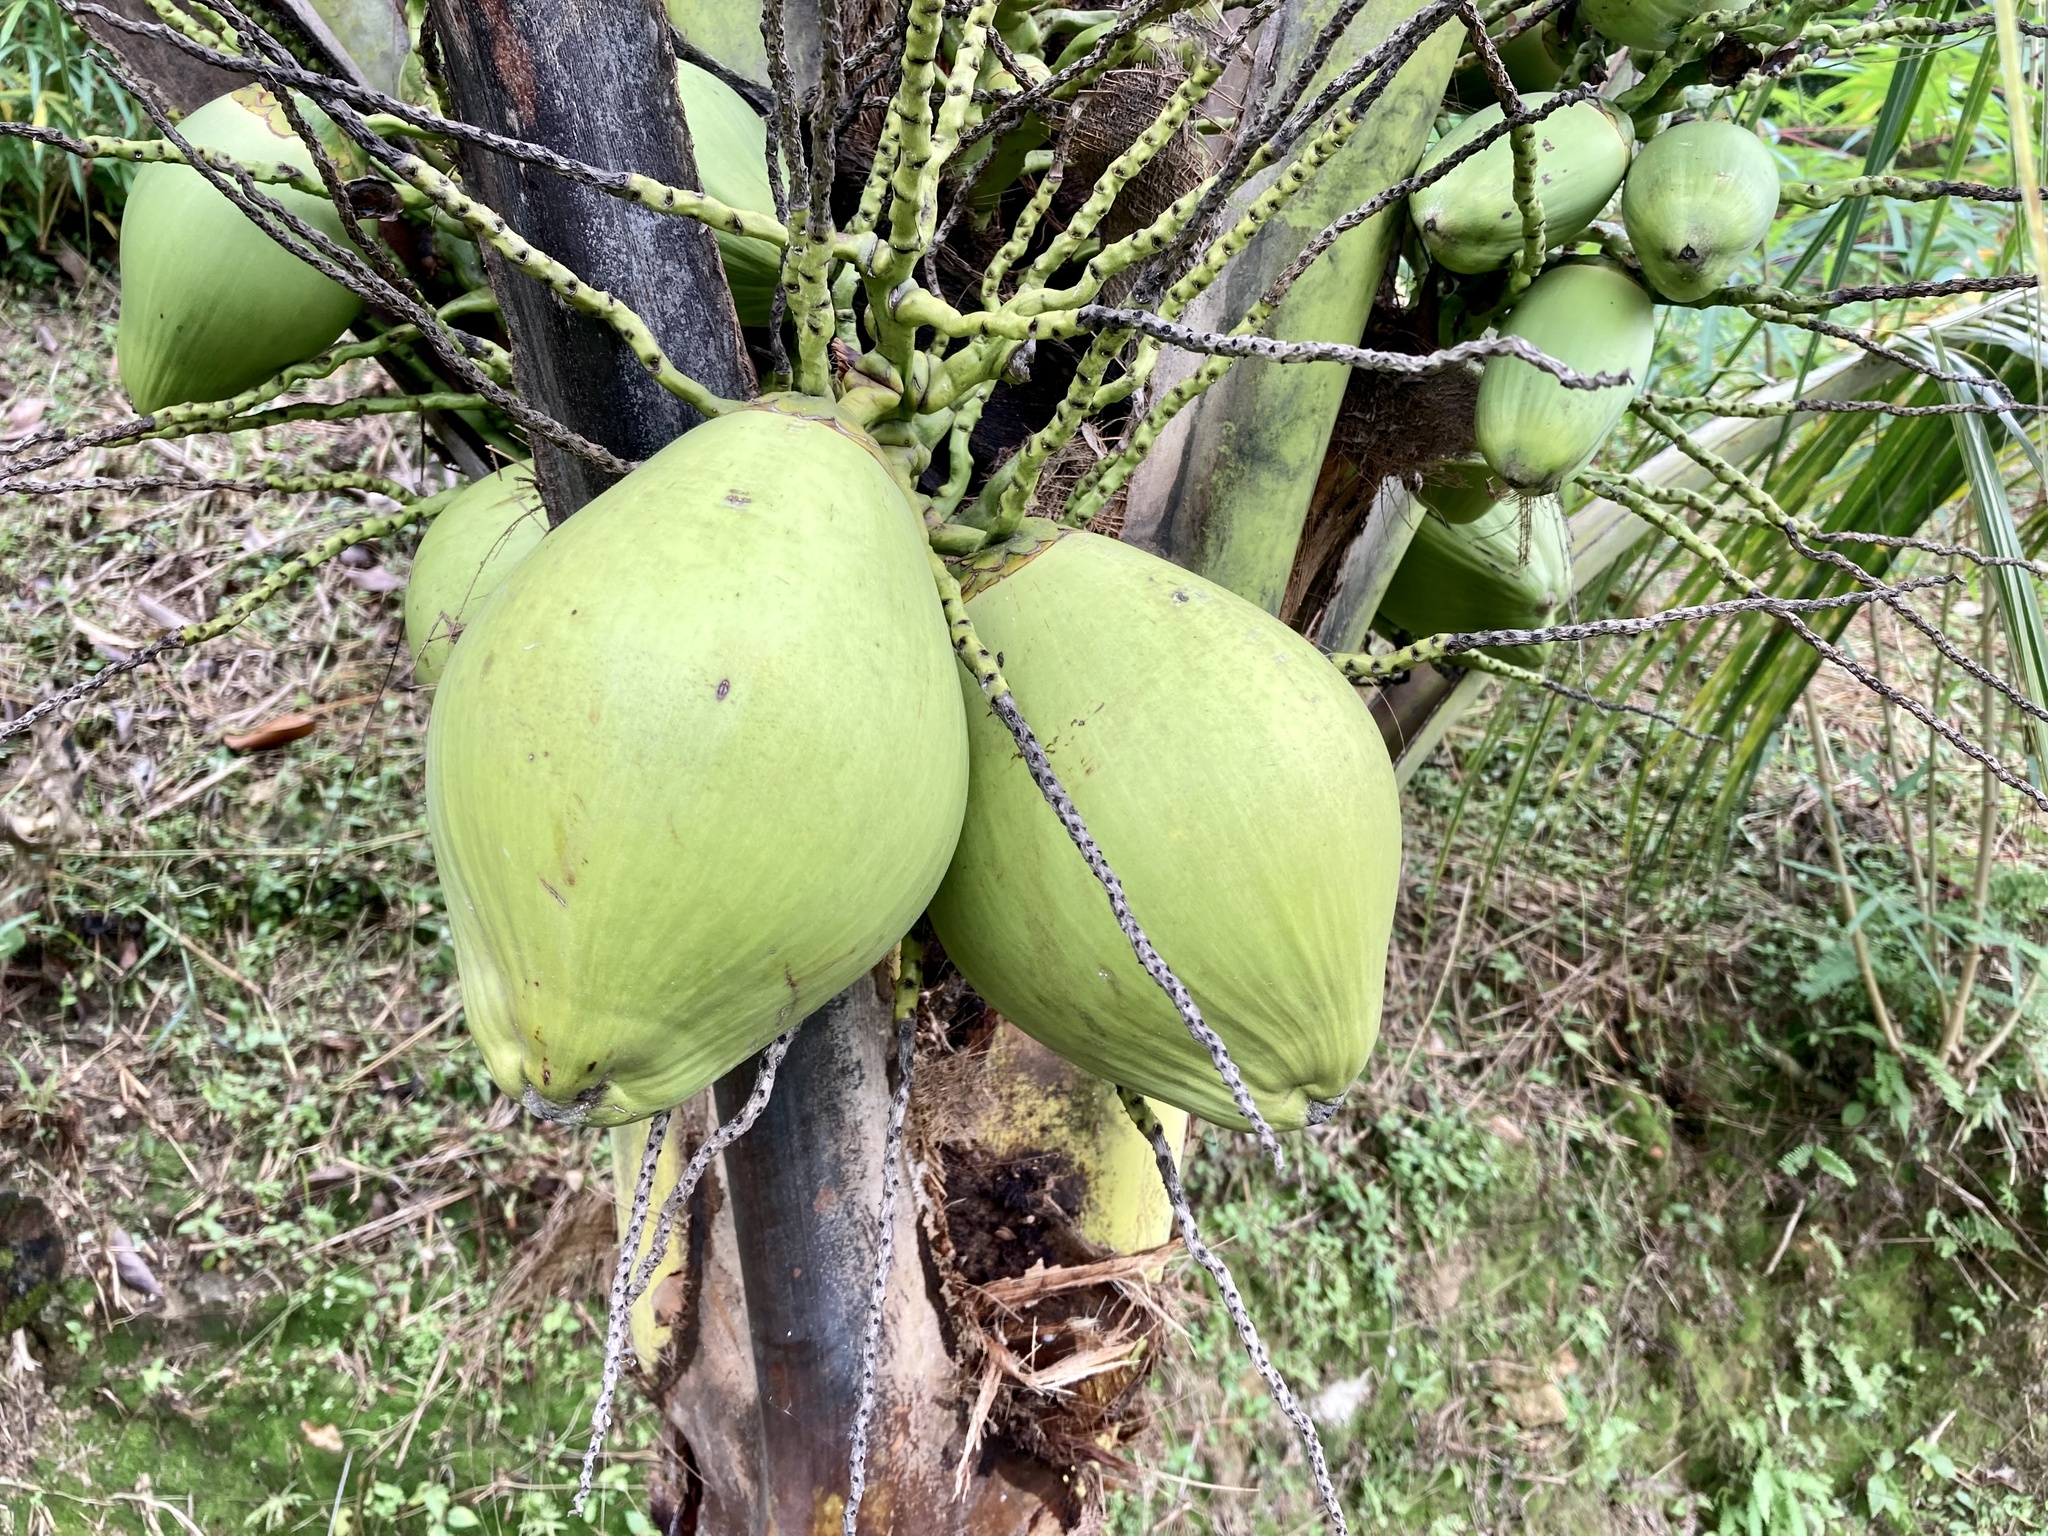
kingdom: Plantae
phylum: Tracheophyta
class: Liliopsida
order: Arecales
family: Arecaceae
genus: Cocos
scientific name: Cocos nucifera
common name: Coconut palm
